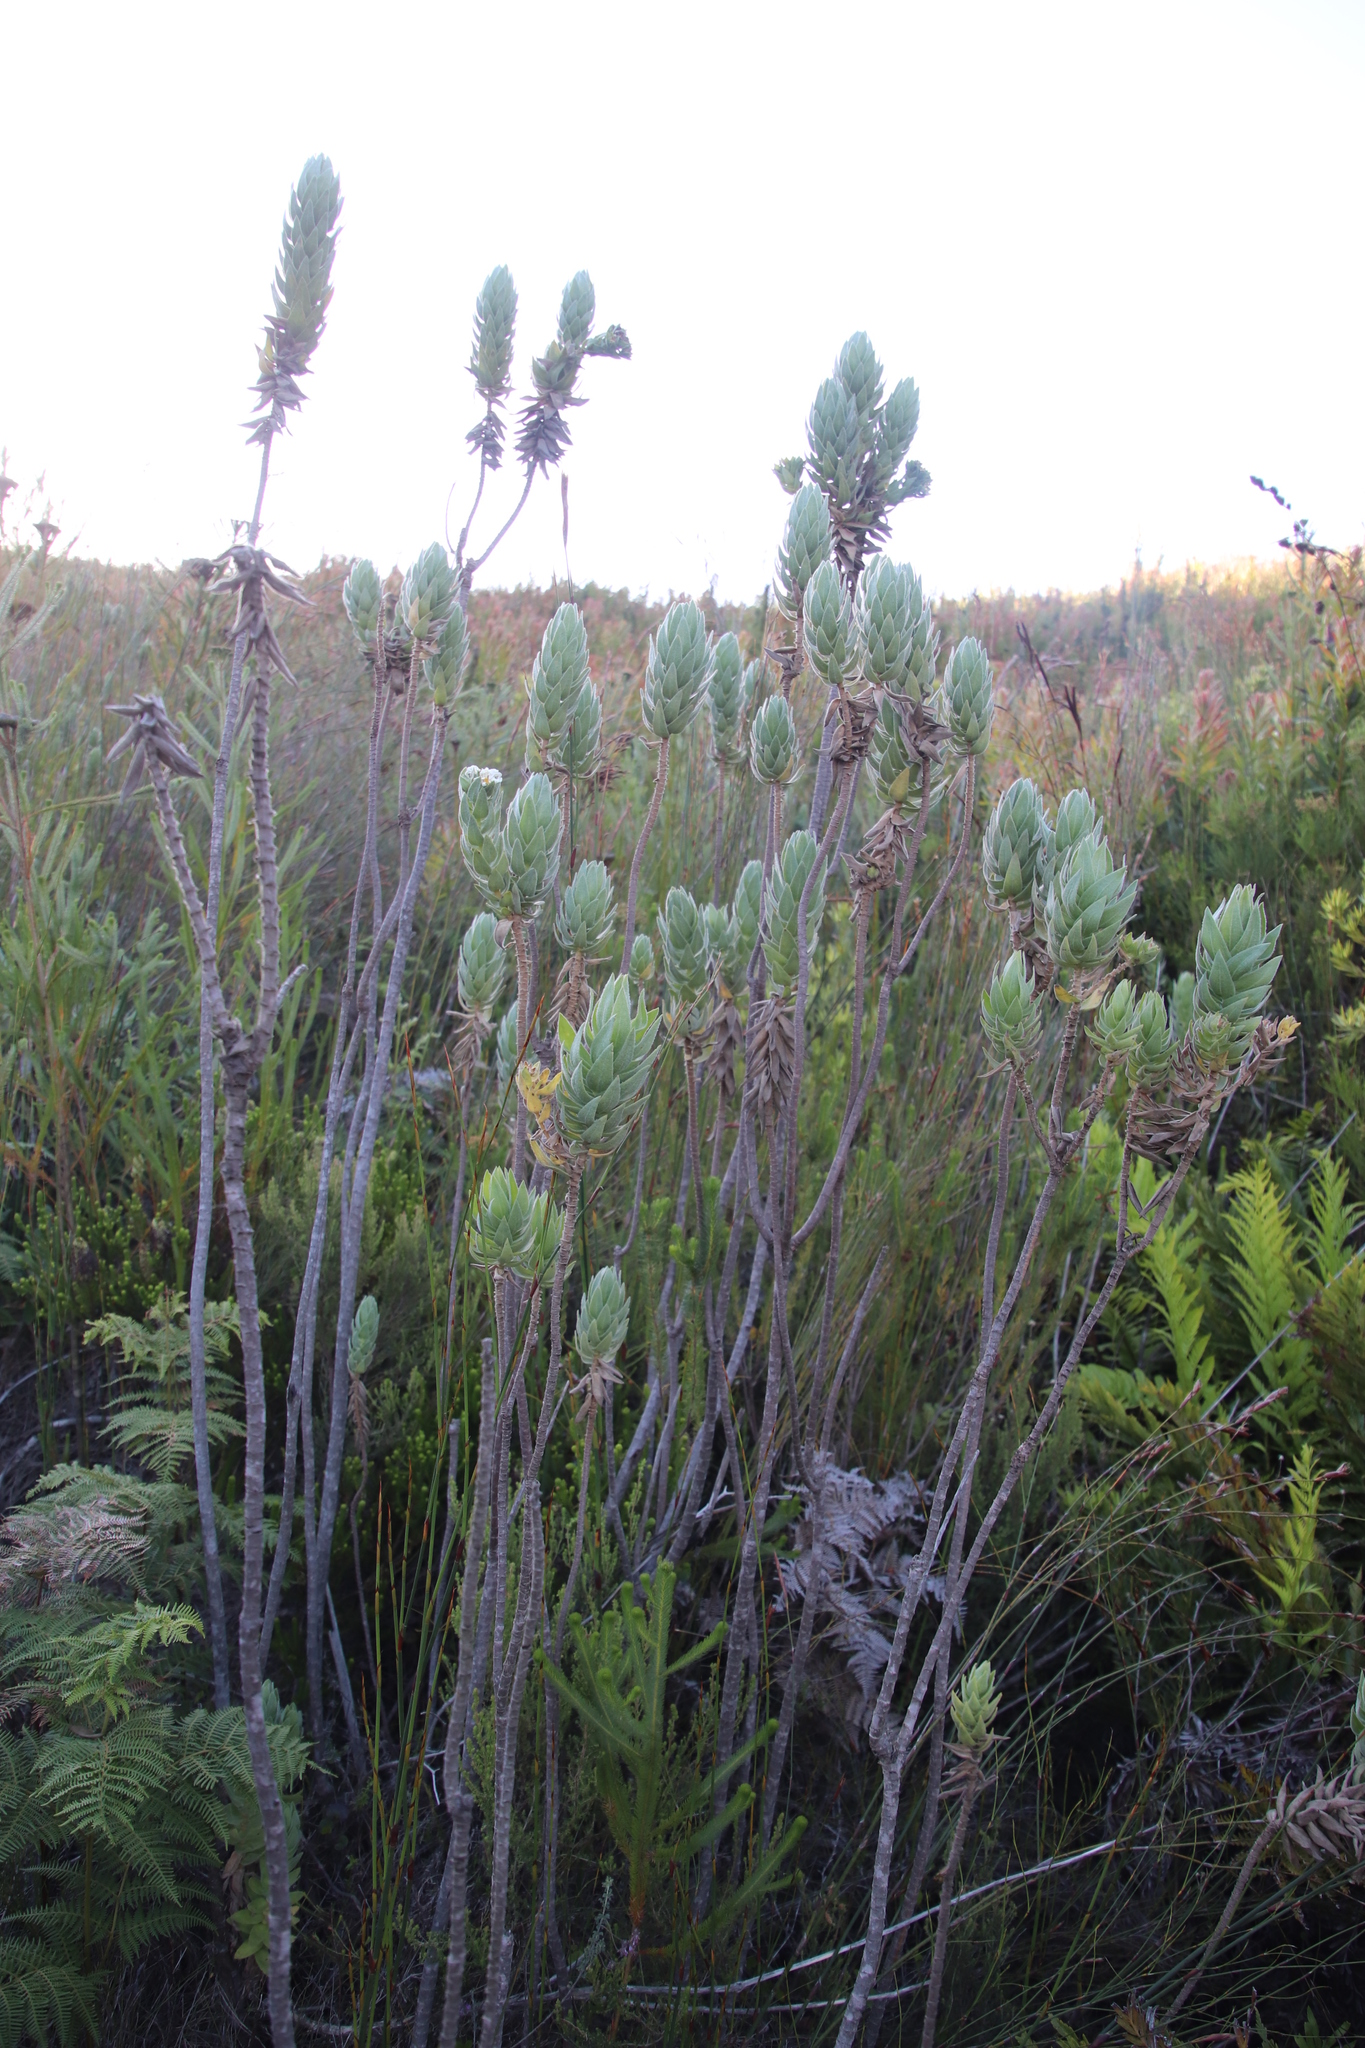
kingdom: Plantae
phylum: Tracheophyta
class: Magnoliopsida
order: Asterales
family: Asteraceae
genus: Osmitopsis
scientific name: Osmitopsis asteriscoides
